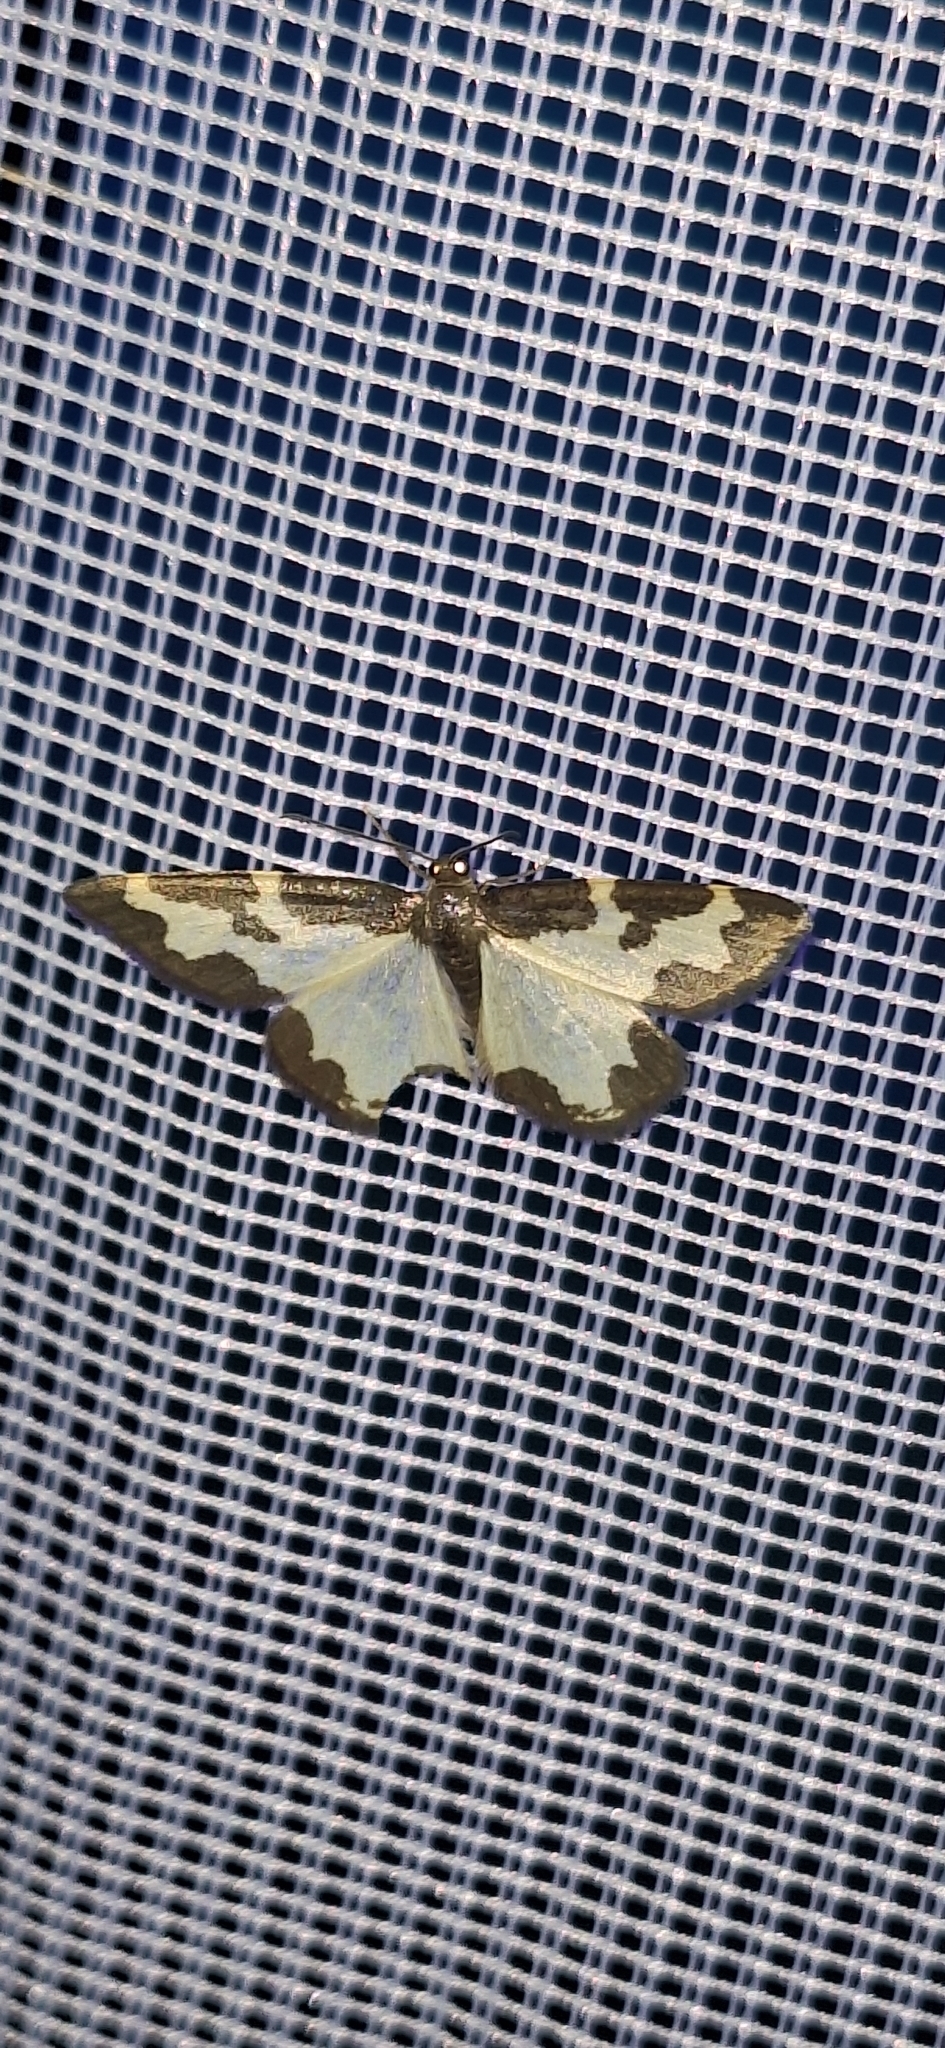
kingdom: Animalia
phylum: Arthropoda
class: Insecta
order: Lepidoptera
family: Geometridae
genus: Lomaspilis
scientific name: Lomaspilis marginata
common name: Clouded border
